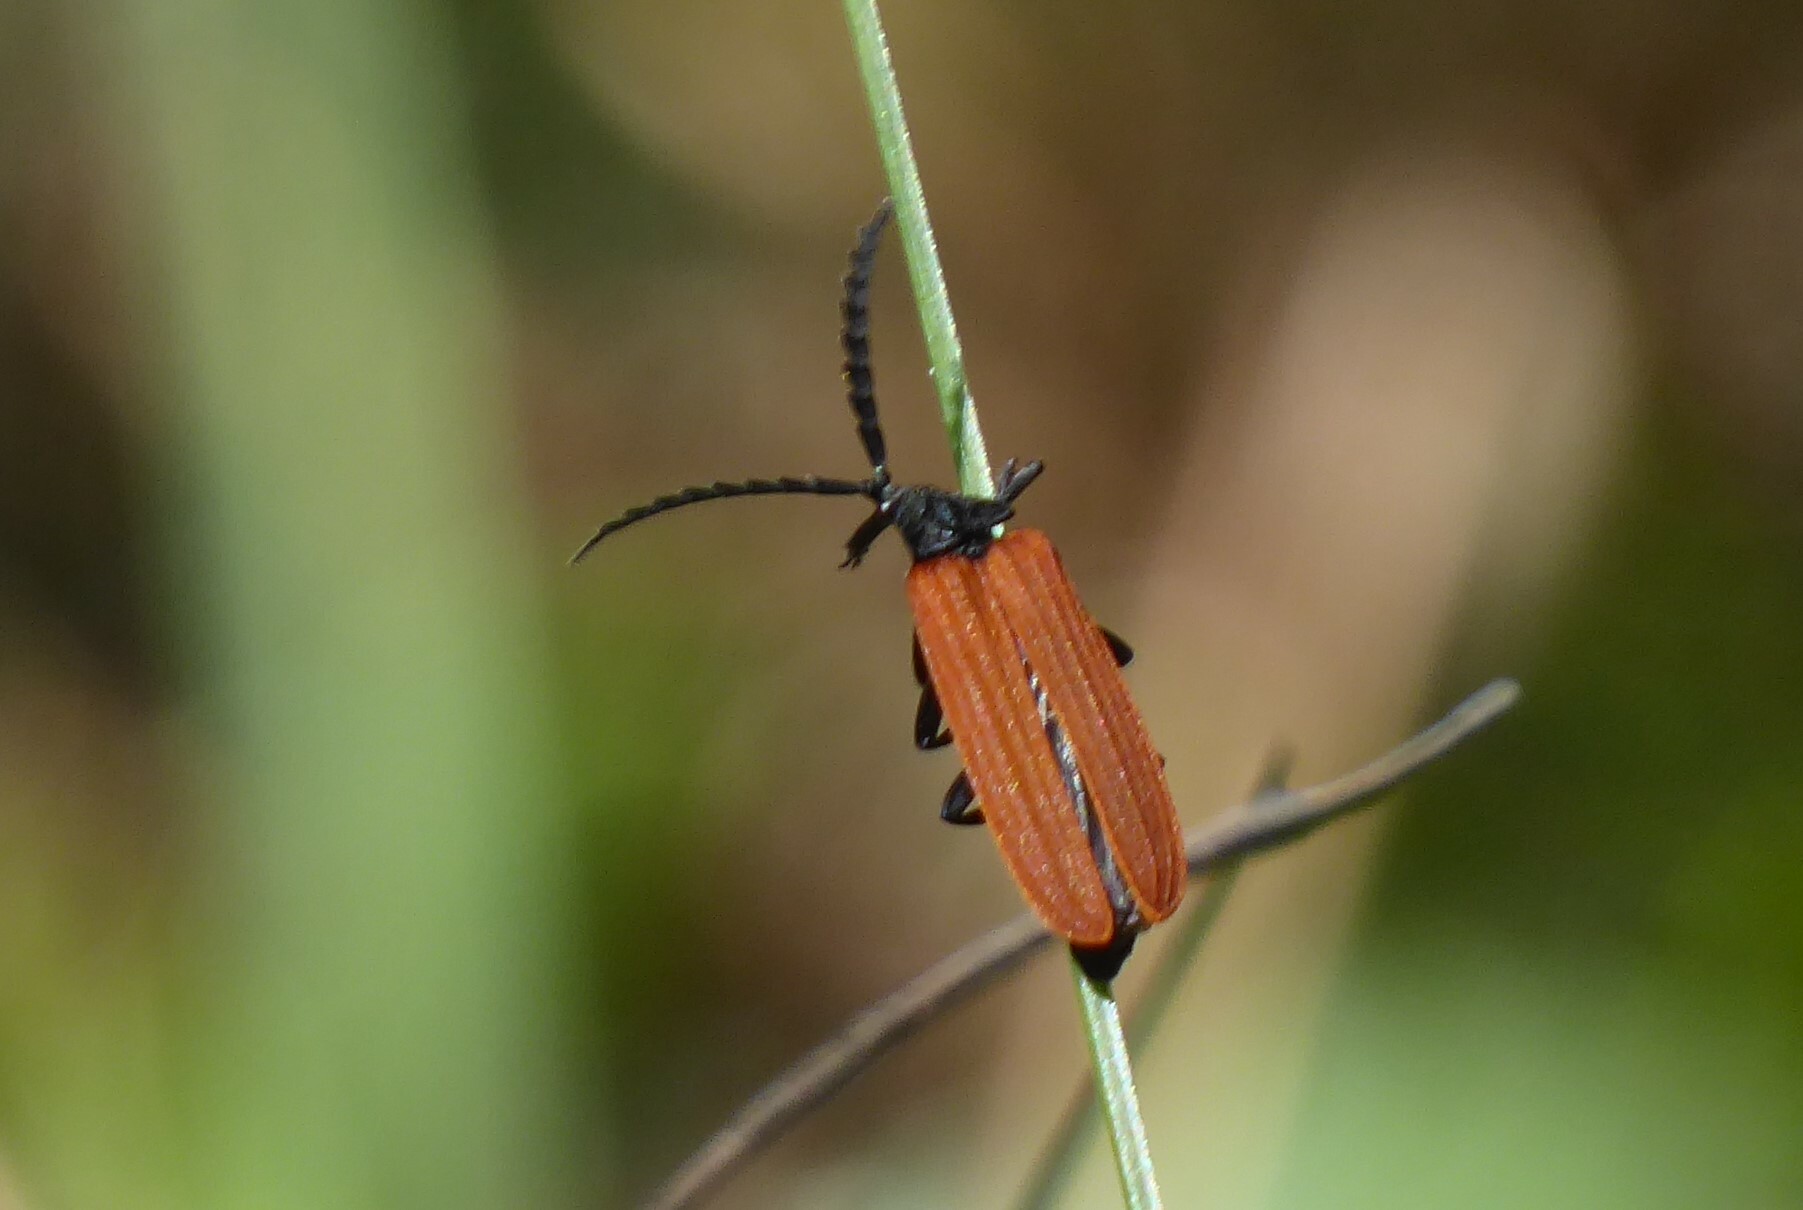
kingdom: Animalia
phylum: Arthropoda
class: Insecta
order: Coleoptera
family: Lycidae
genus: Porrostoma
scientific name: Porrostoma rhipidium
